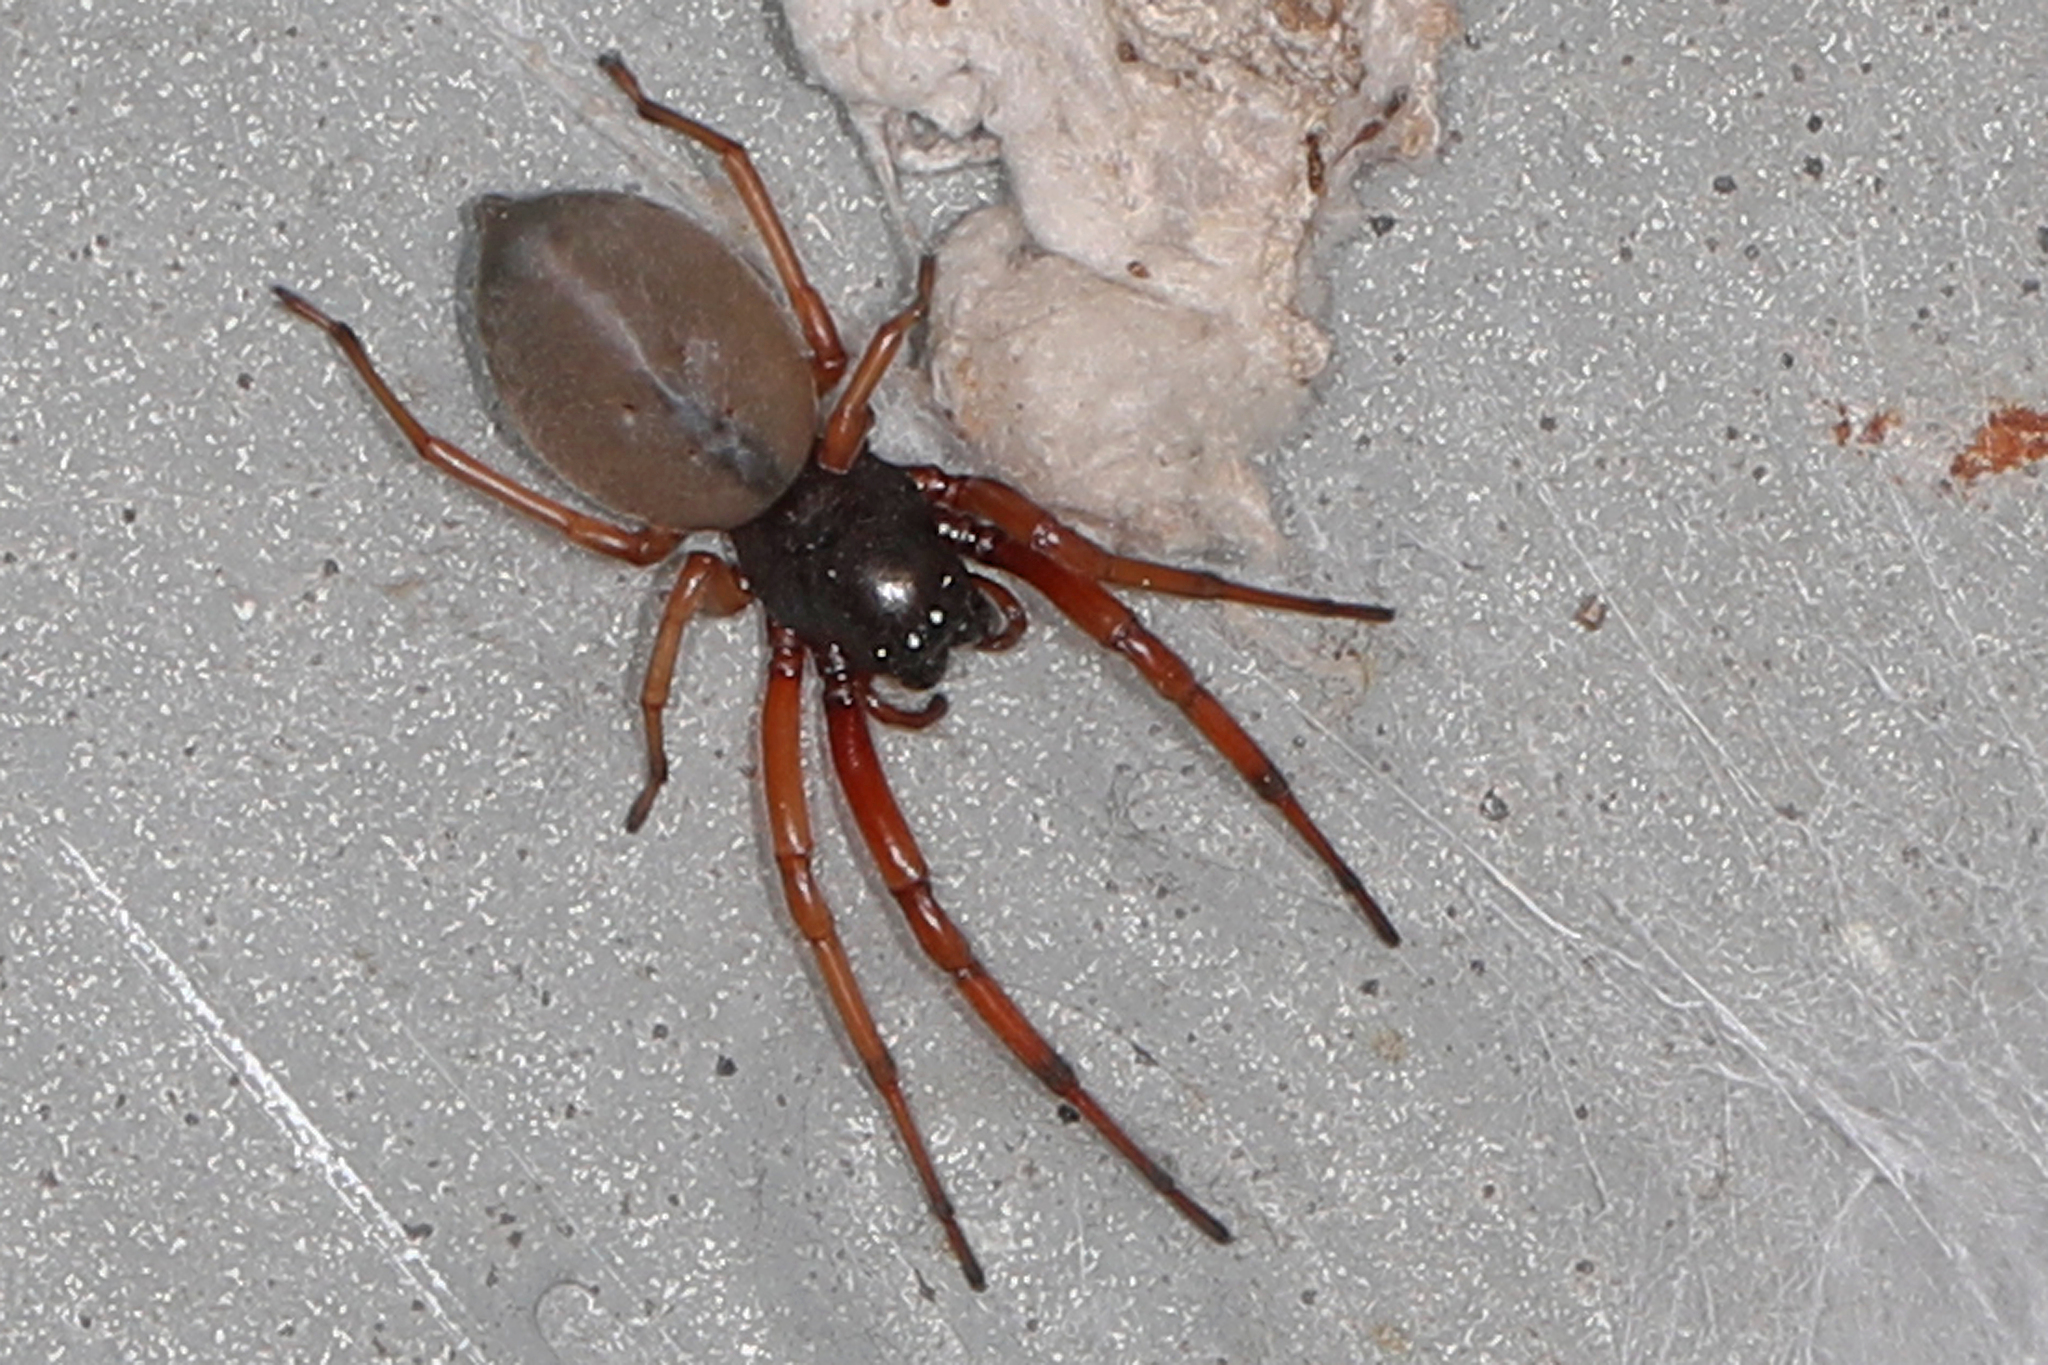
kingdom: Animalia
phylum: Arthropoda
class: Arachnida
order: Araneae
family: Trachelidae
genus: Trachelas
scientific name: Trachelas tranquillus
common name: Broad-faced sac spider
